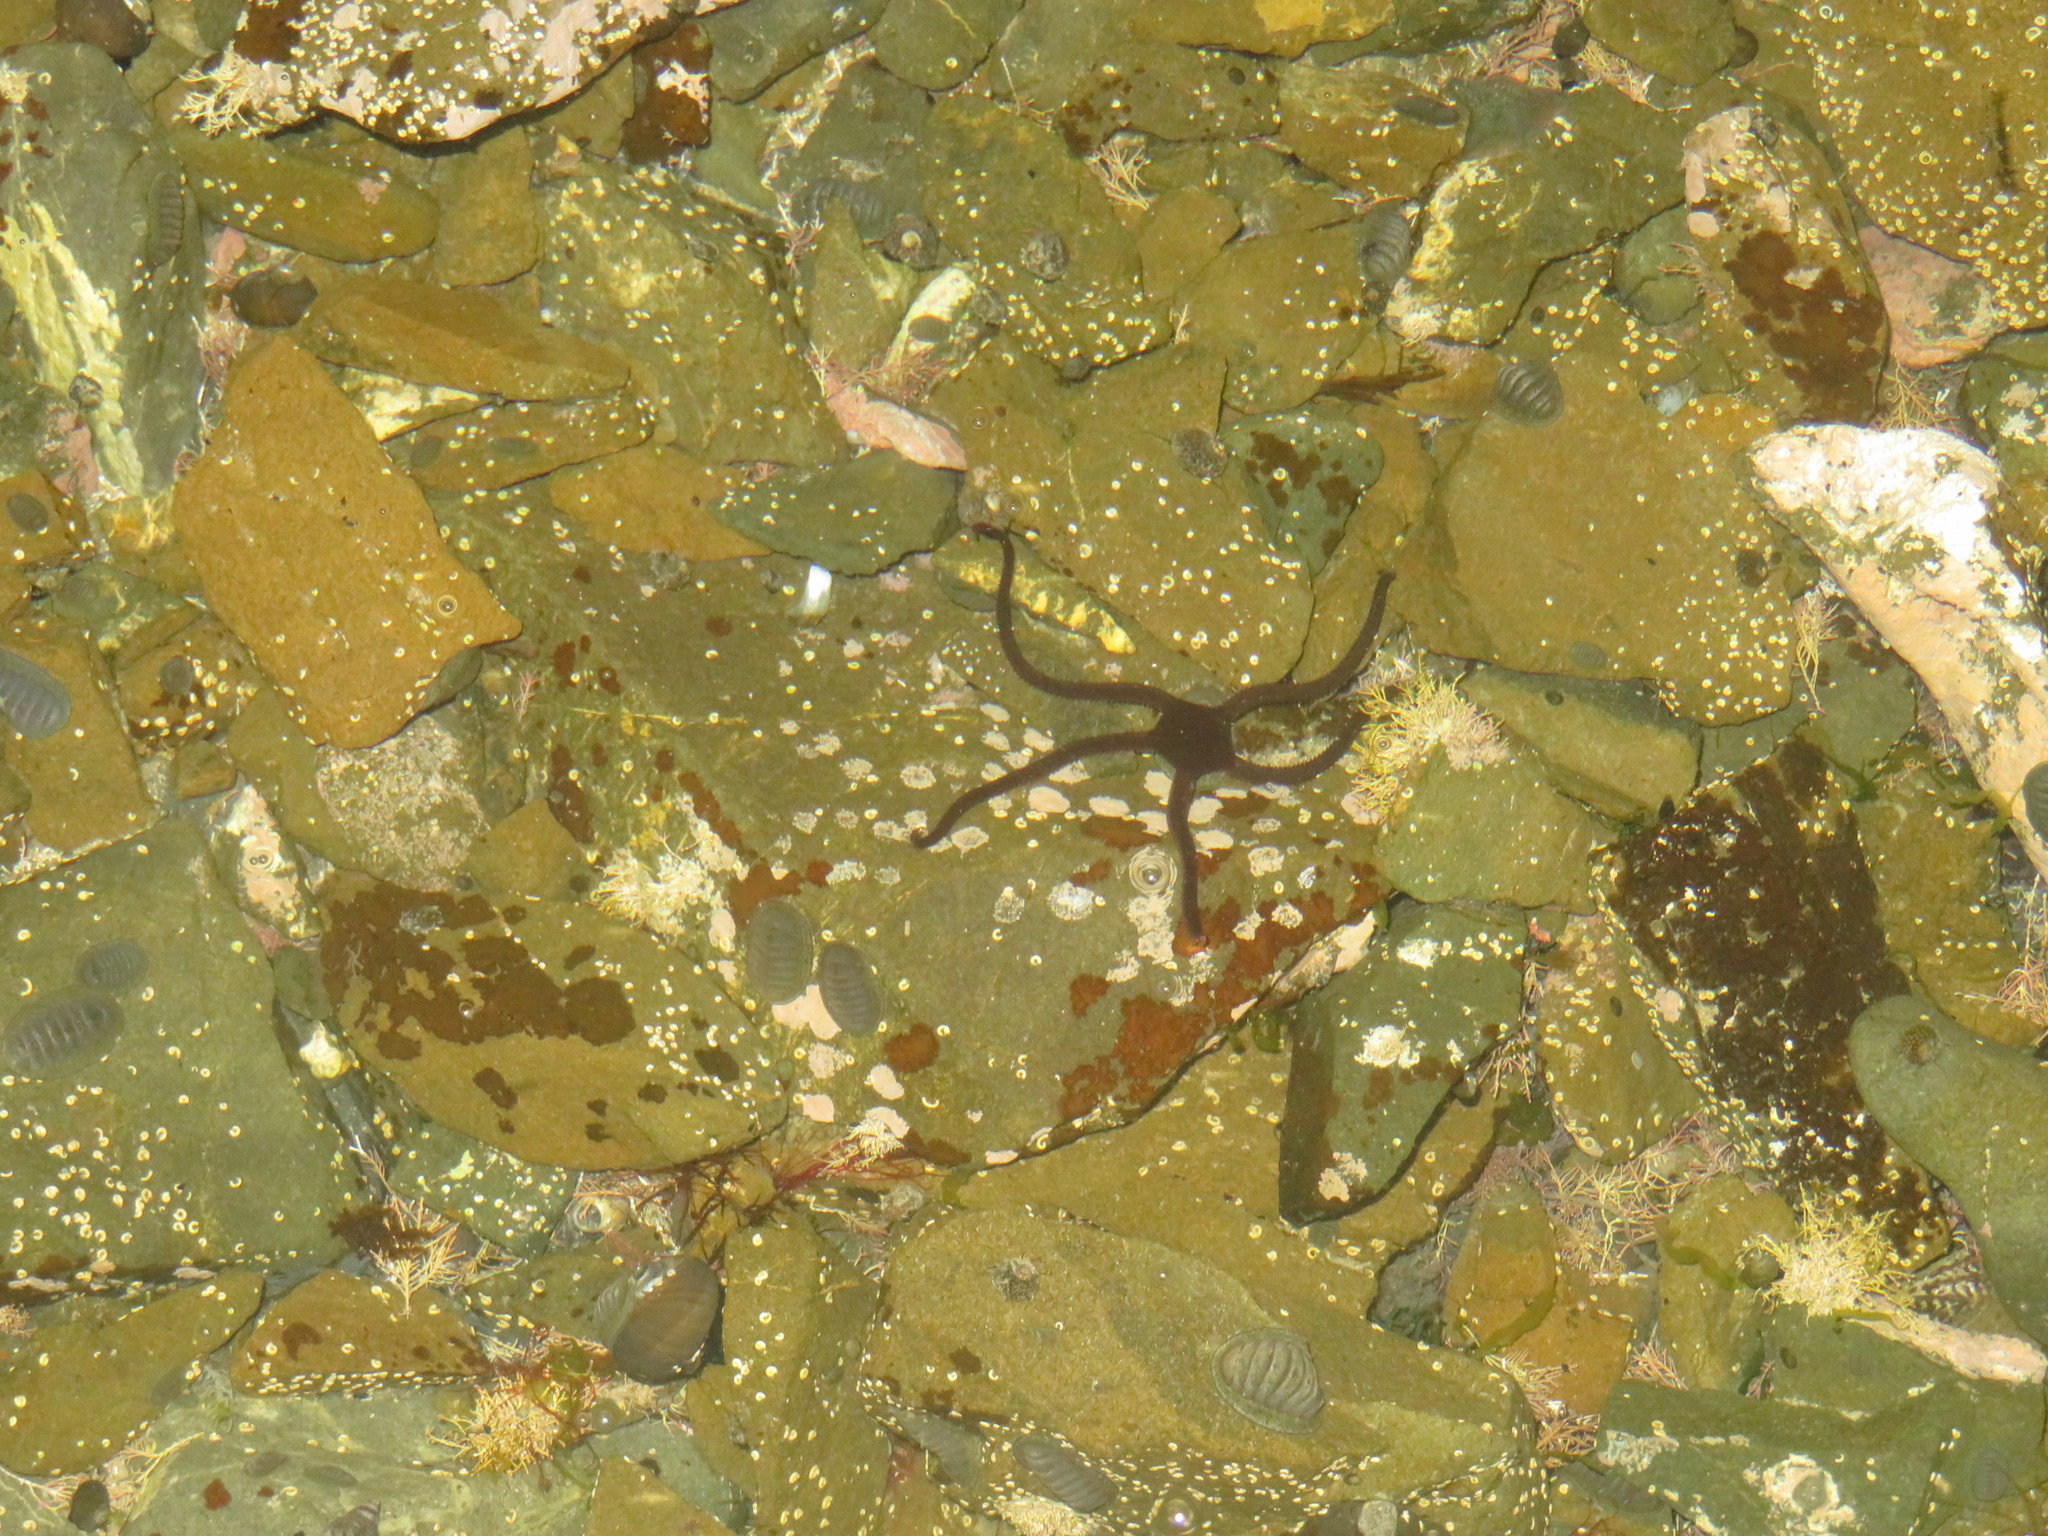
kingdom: Animalia
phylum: Echinodermata
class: Ophiuroidea
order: Ophiacanthida
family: Ophiodermatidae
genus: Ophiopsammus
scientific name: Ophiopsammus maculata
